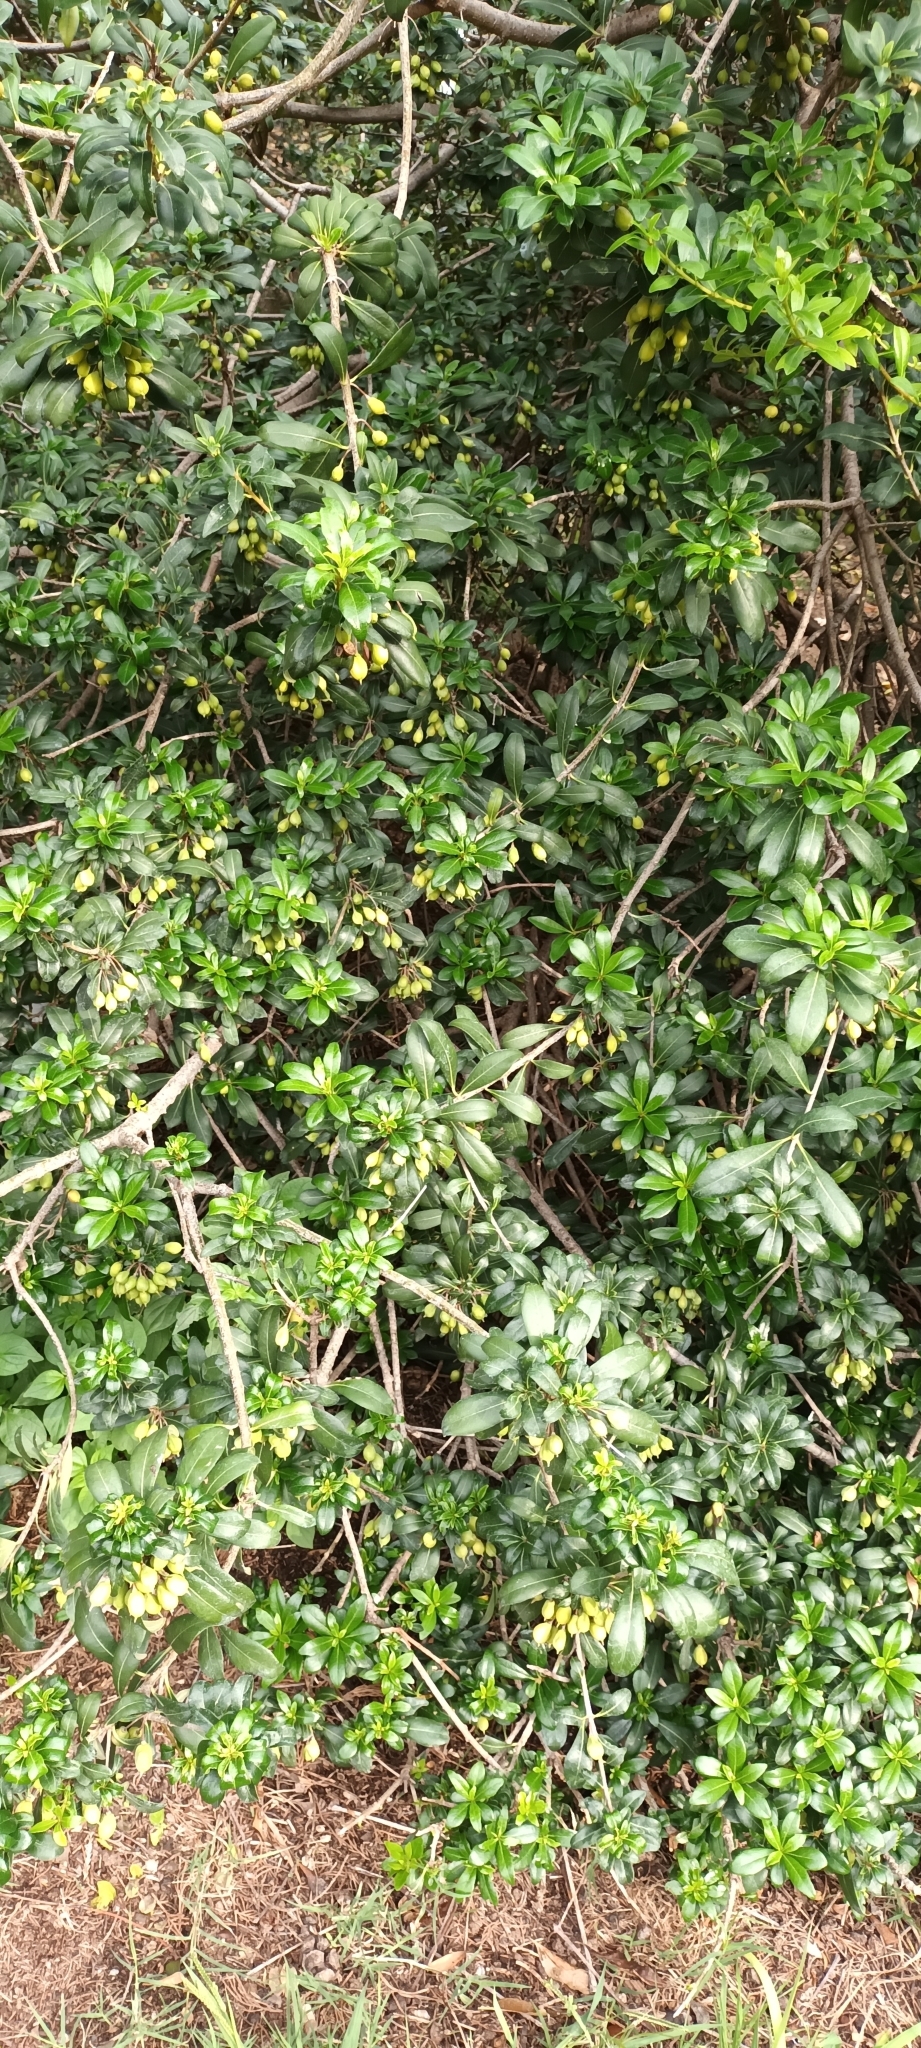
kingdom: Plantae
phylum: Tracheophyta
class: Magnoliopsida
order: Apiales
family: Pittosporaceae
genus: Pittosporum
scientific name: Pittosporum tobira
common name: Japanese cheesewood
